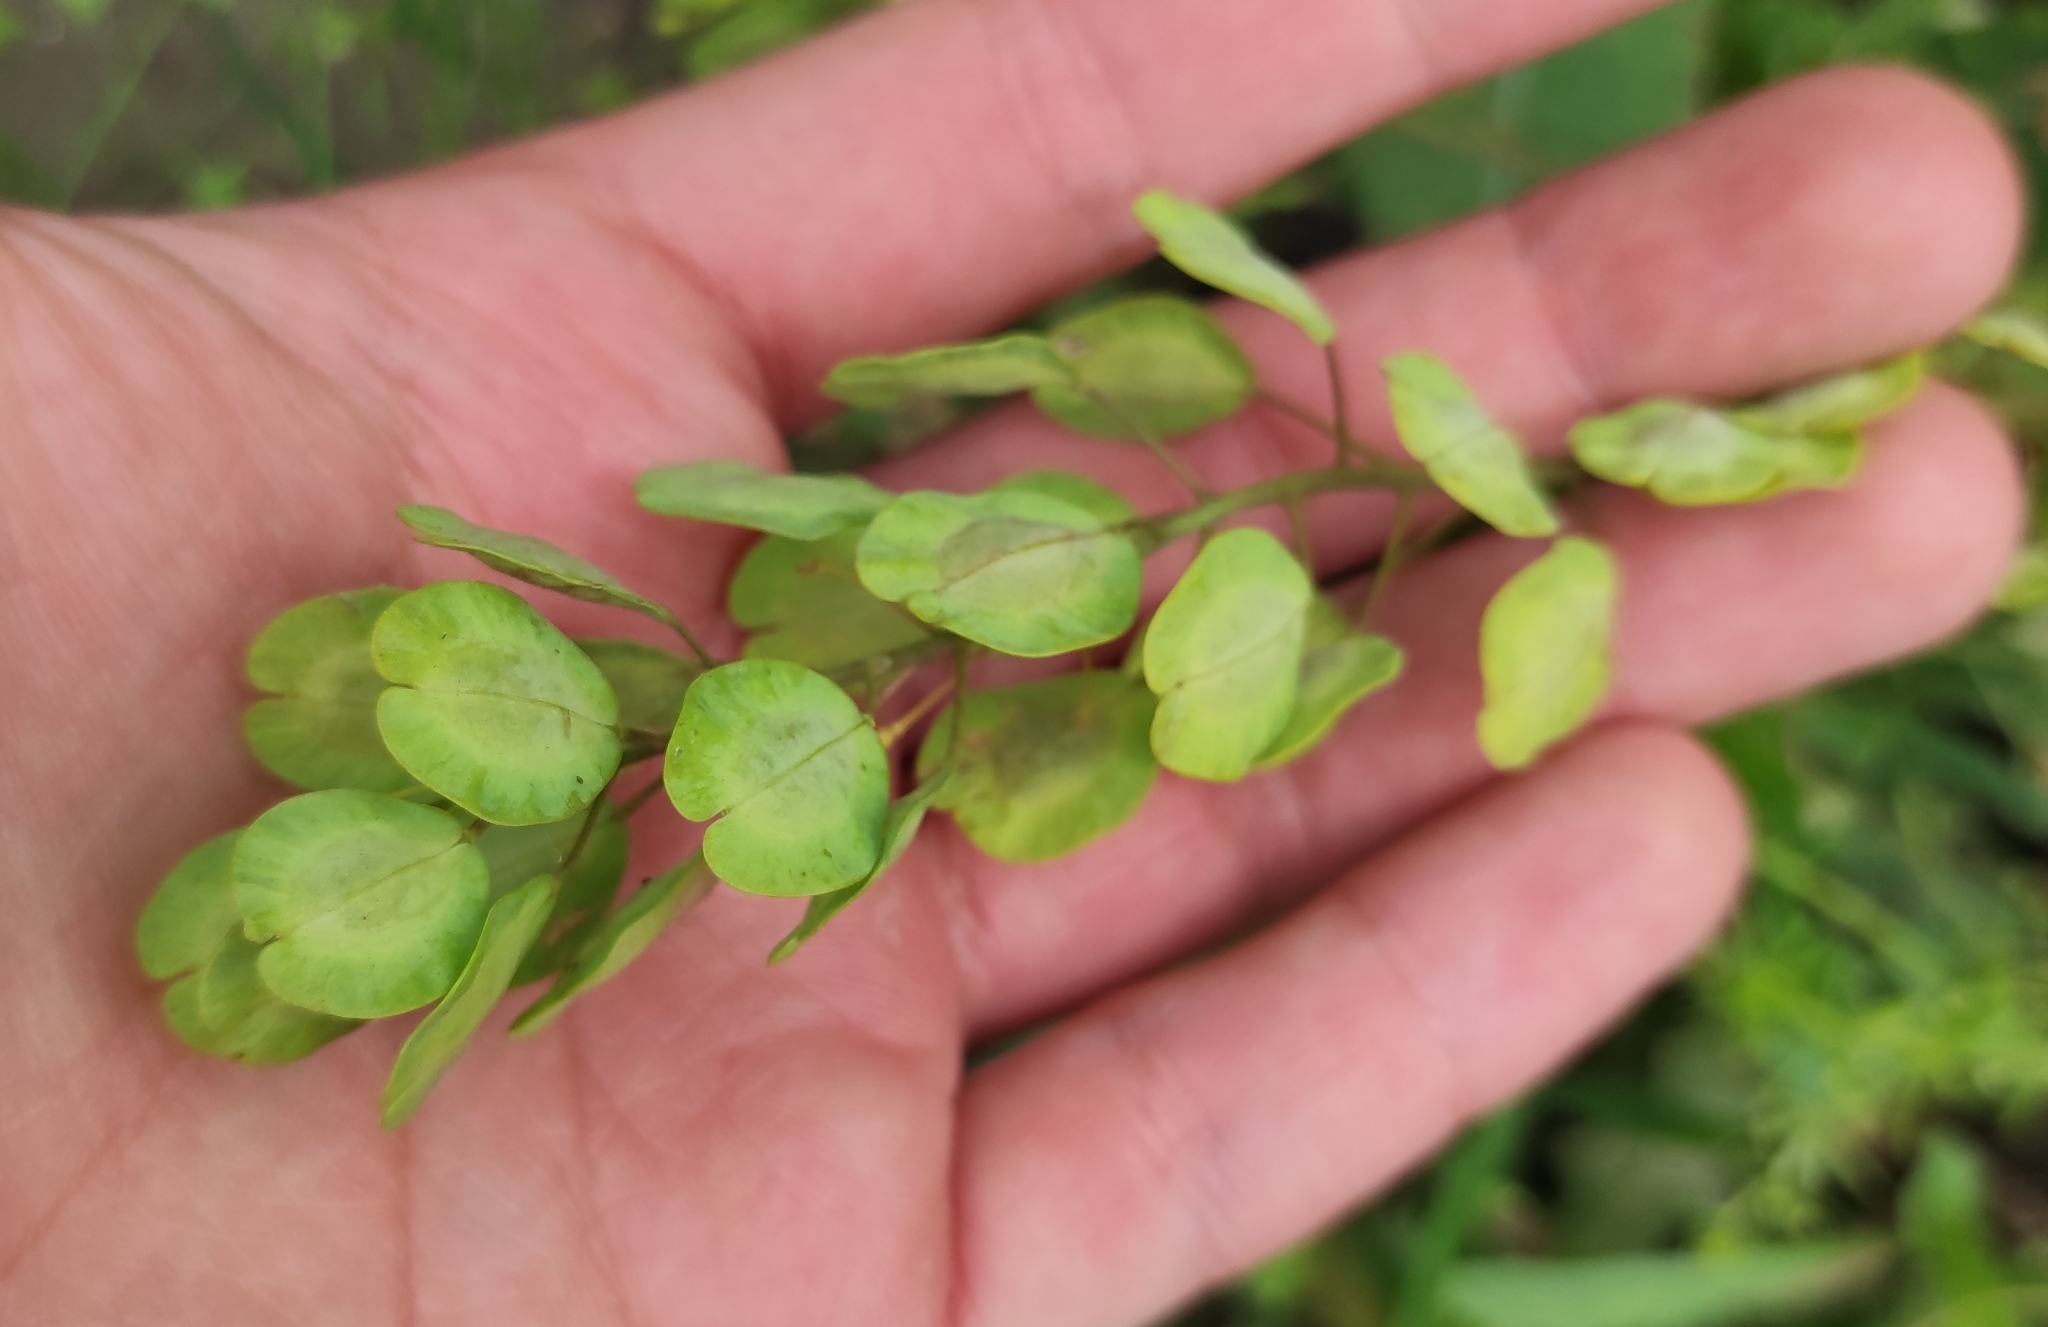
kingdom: Plantae
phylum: Tracheophyta
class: Magnoliopsida
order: Brassicales
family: Brassicaceae
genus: Thlaspi
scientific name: Thlaspi arvense
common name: Field pennycress
